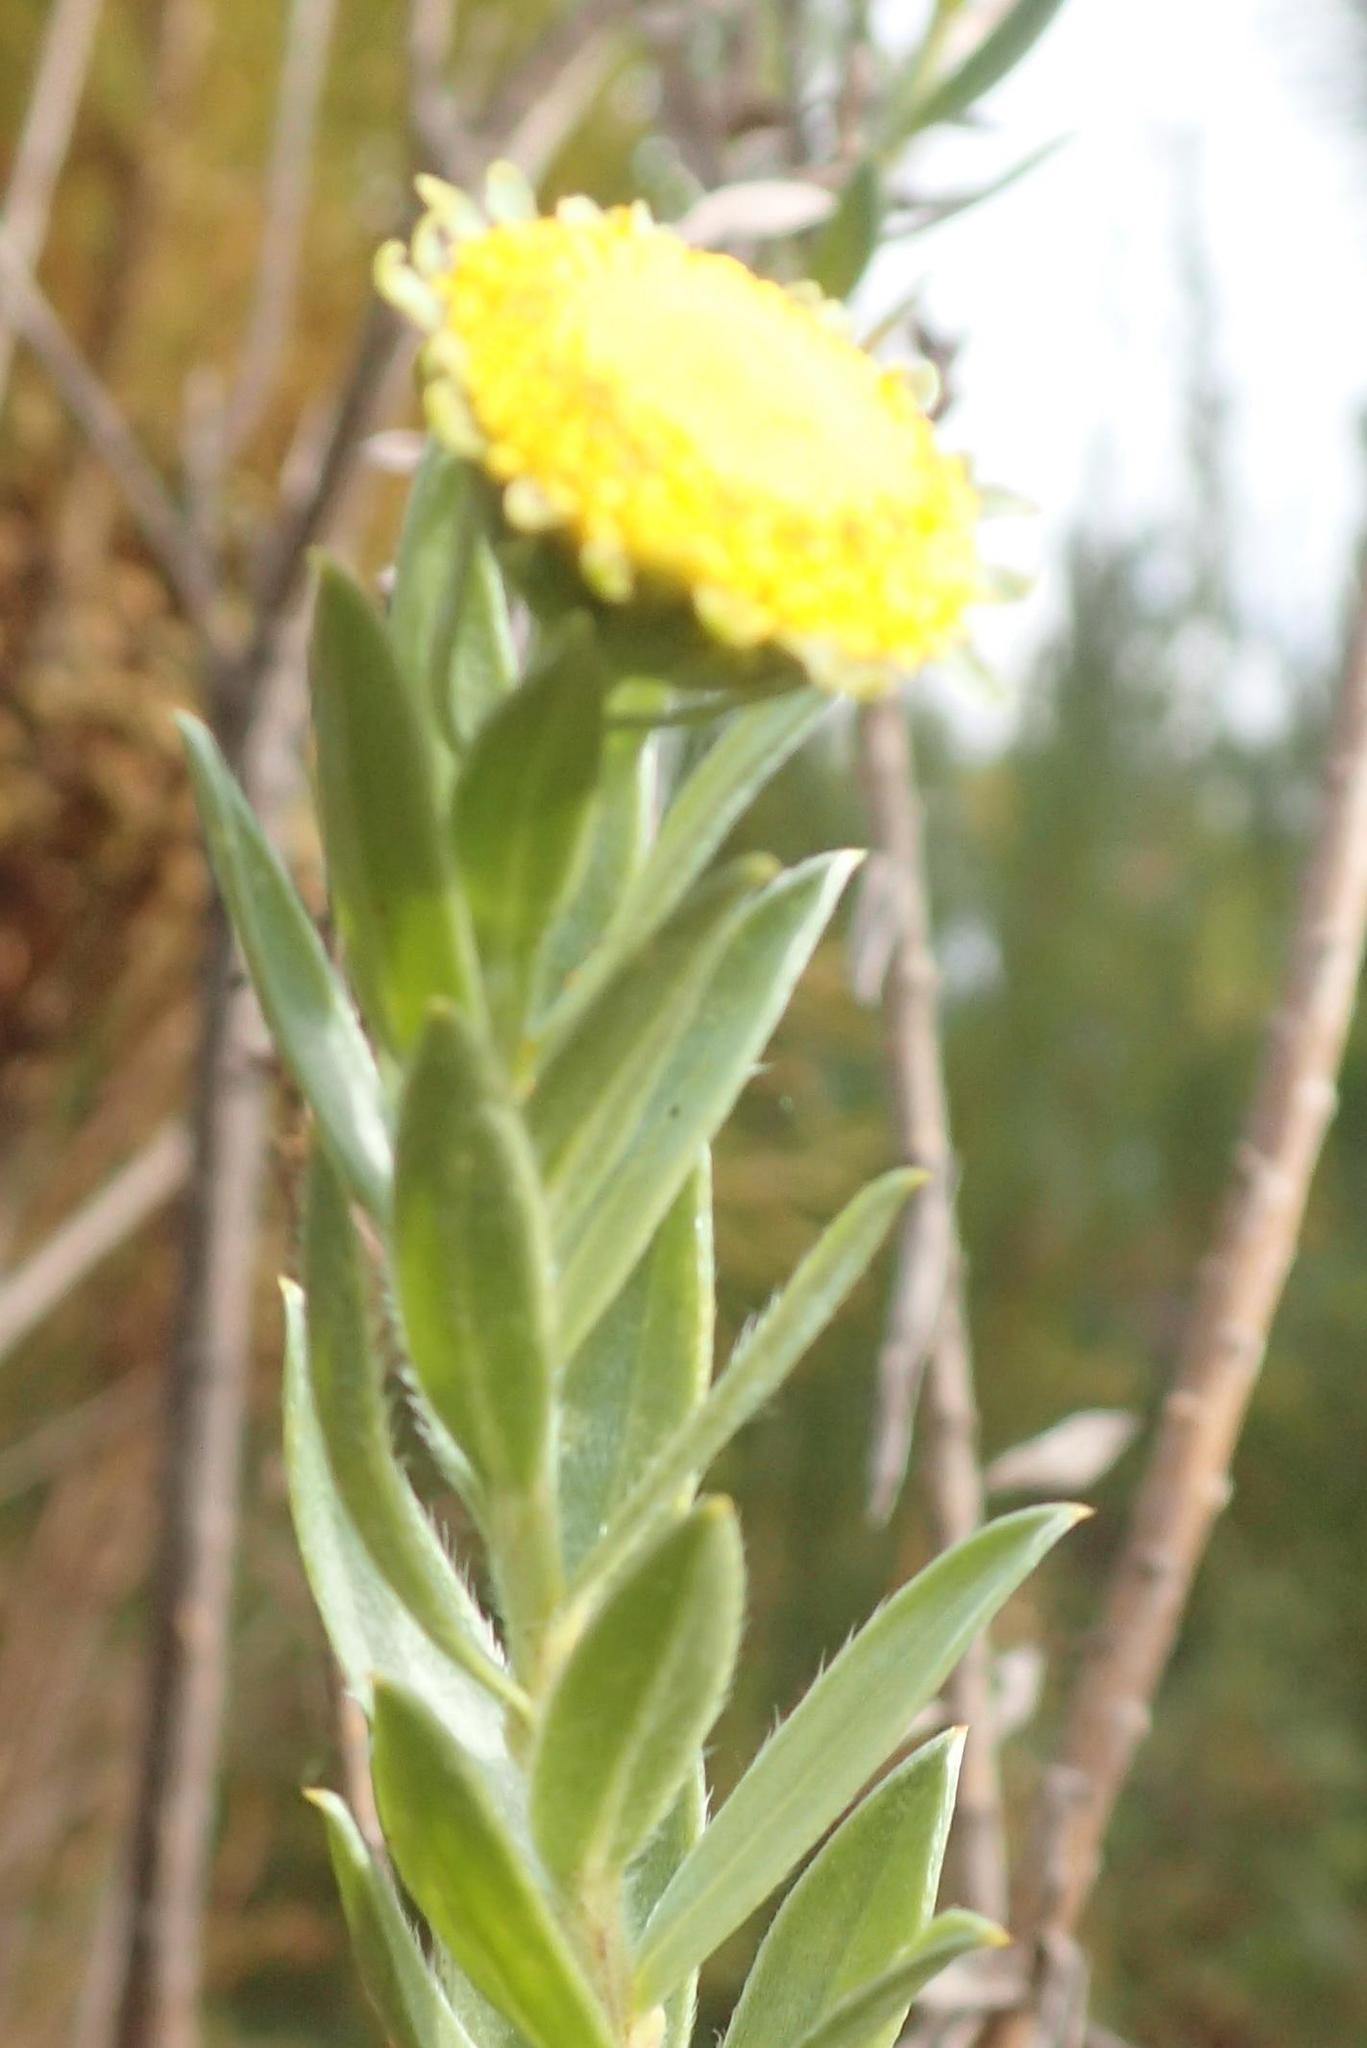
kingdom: Plantae
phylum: Tracheophyta
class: Magnoliopsida
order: Asterales
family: Asteraceae
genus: Schistostephium
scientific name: Schistostephium umbellatum
